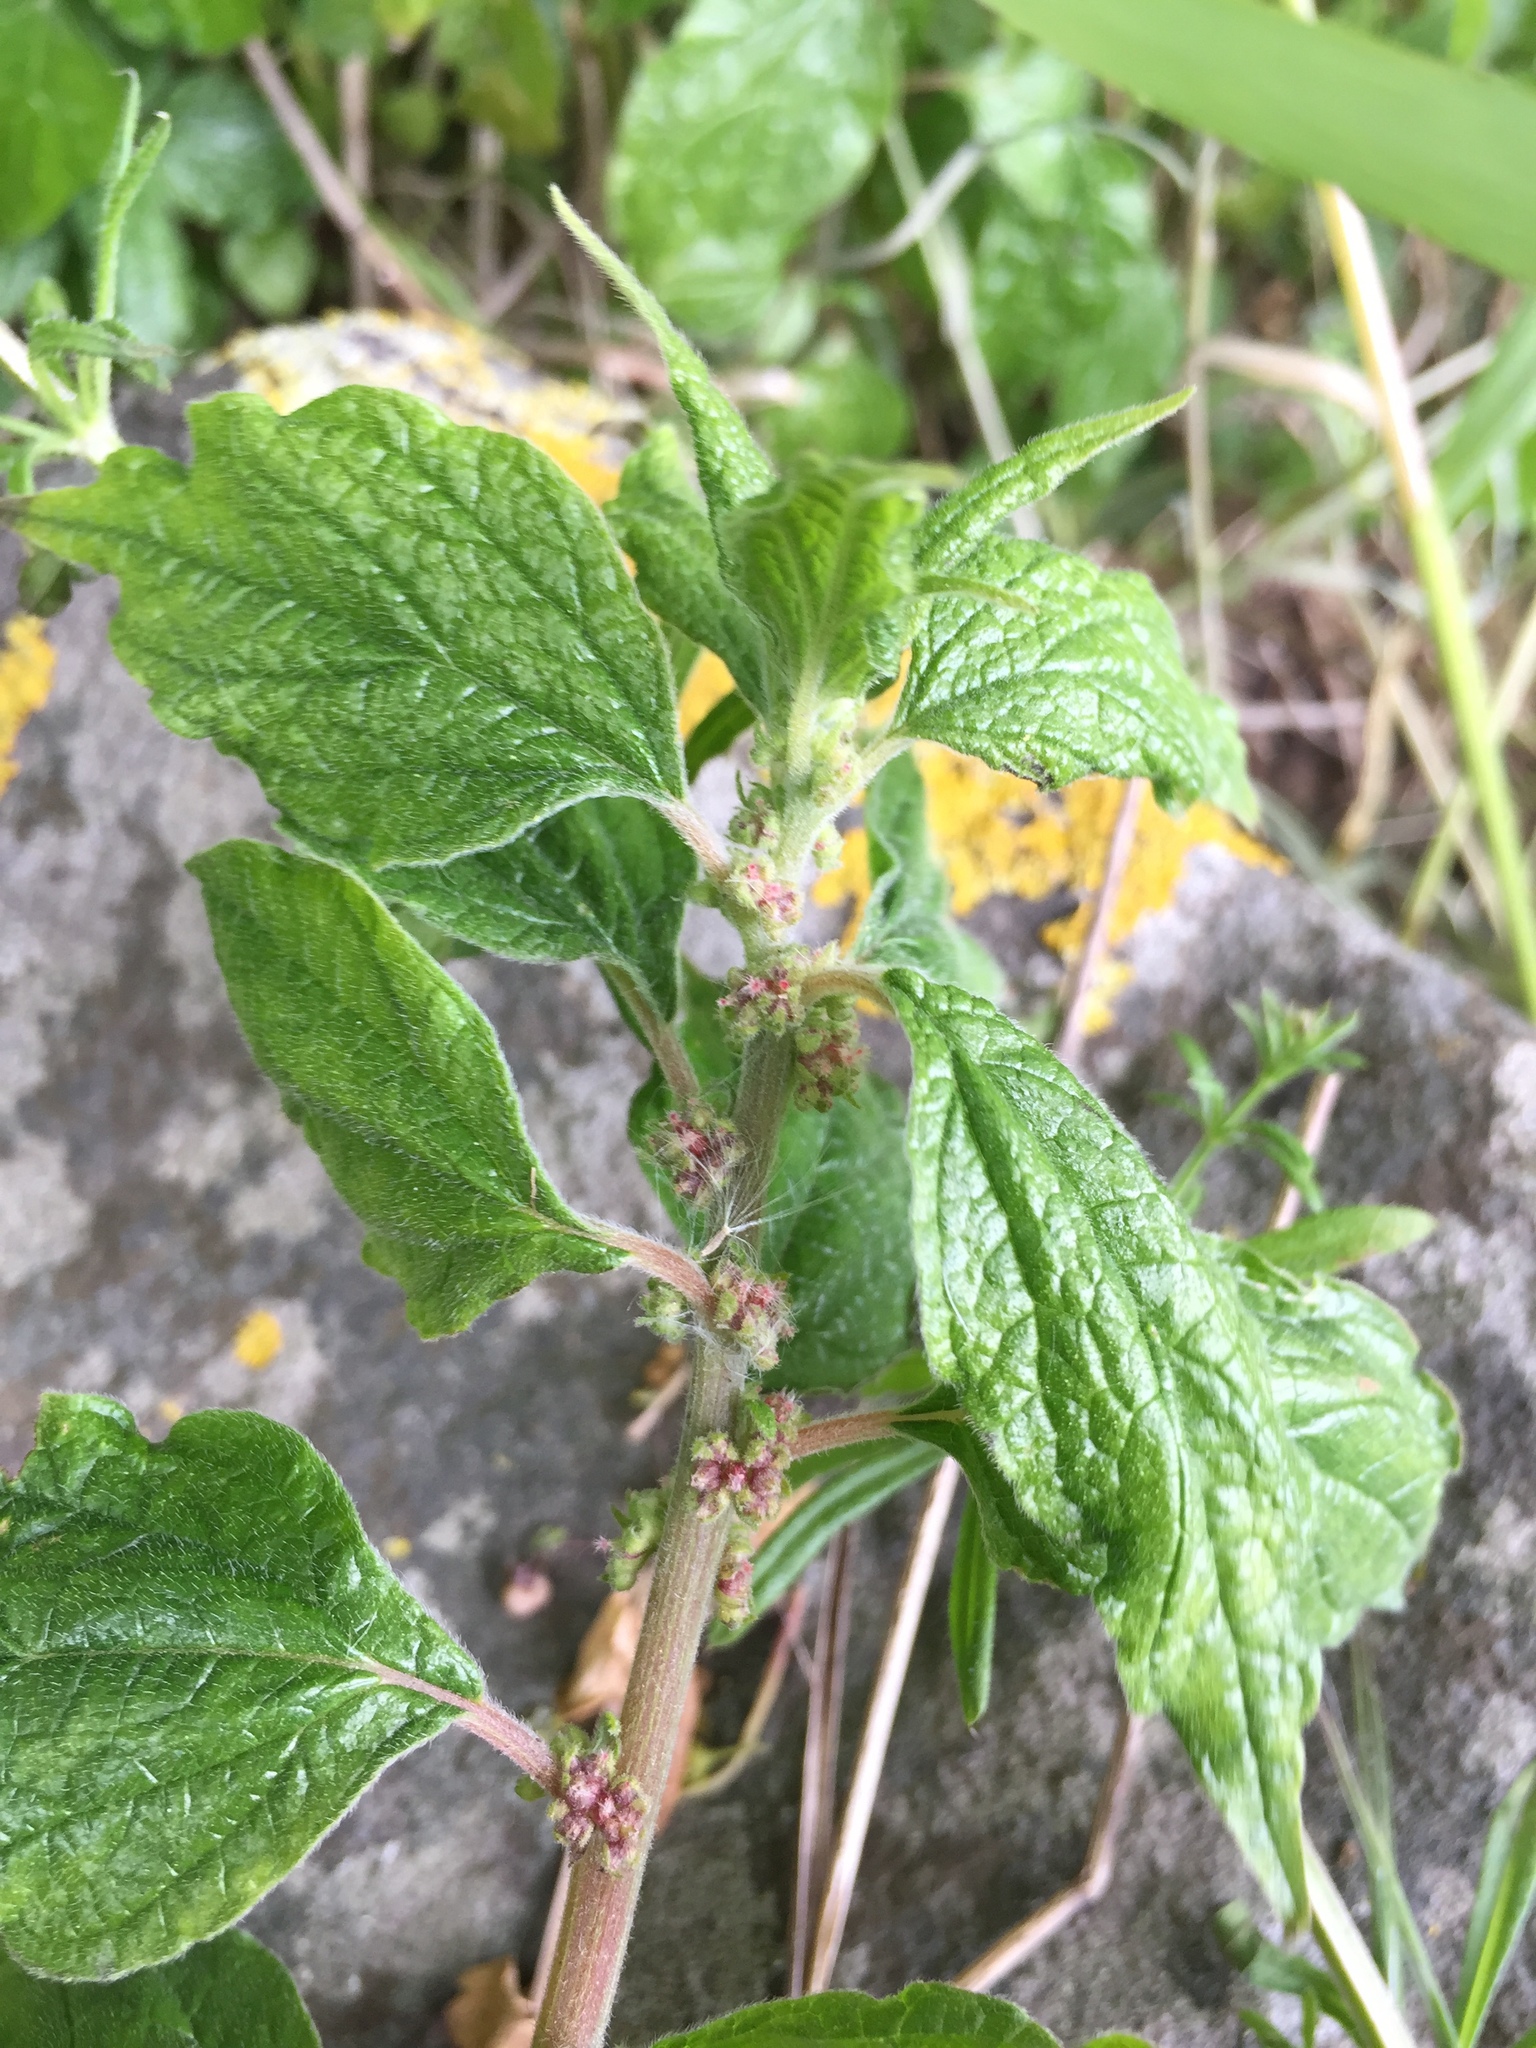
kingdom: Plantae
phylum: Tracheophyta
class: Magnoliopsida
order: Rosales
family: Urticaceae
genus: Parietaria
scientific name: Parietaria officinalis
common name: Eastern pellitory-of-the-wall
